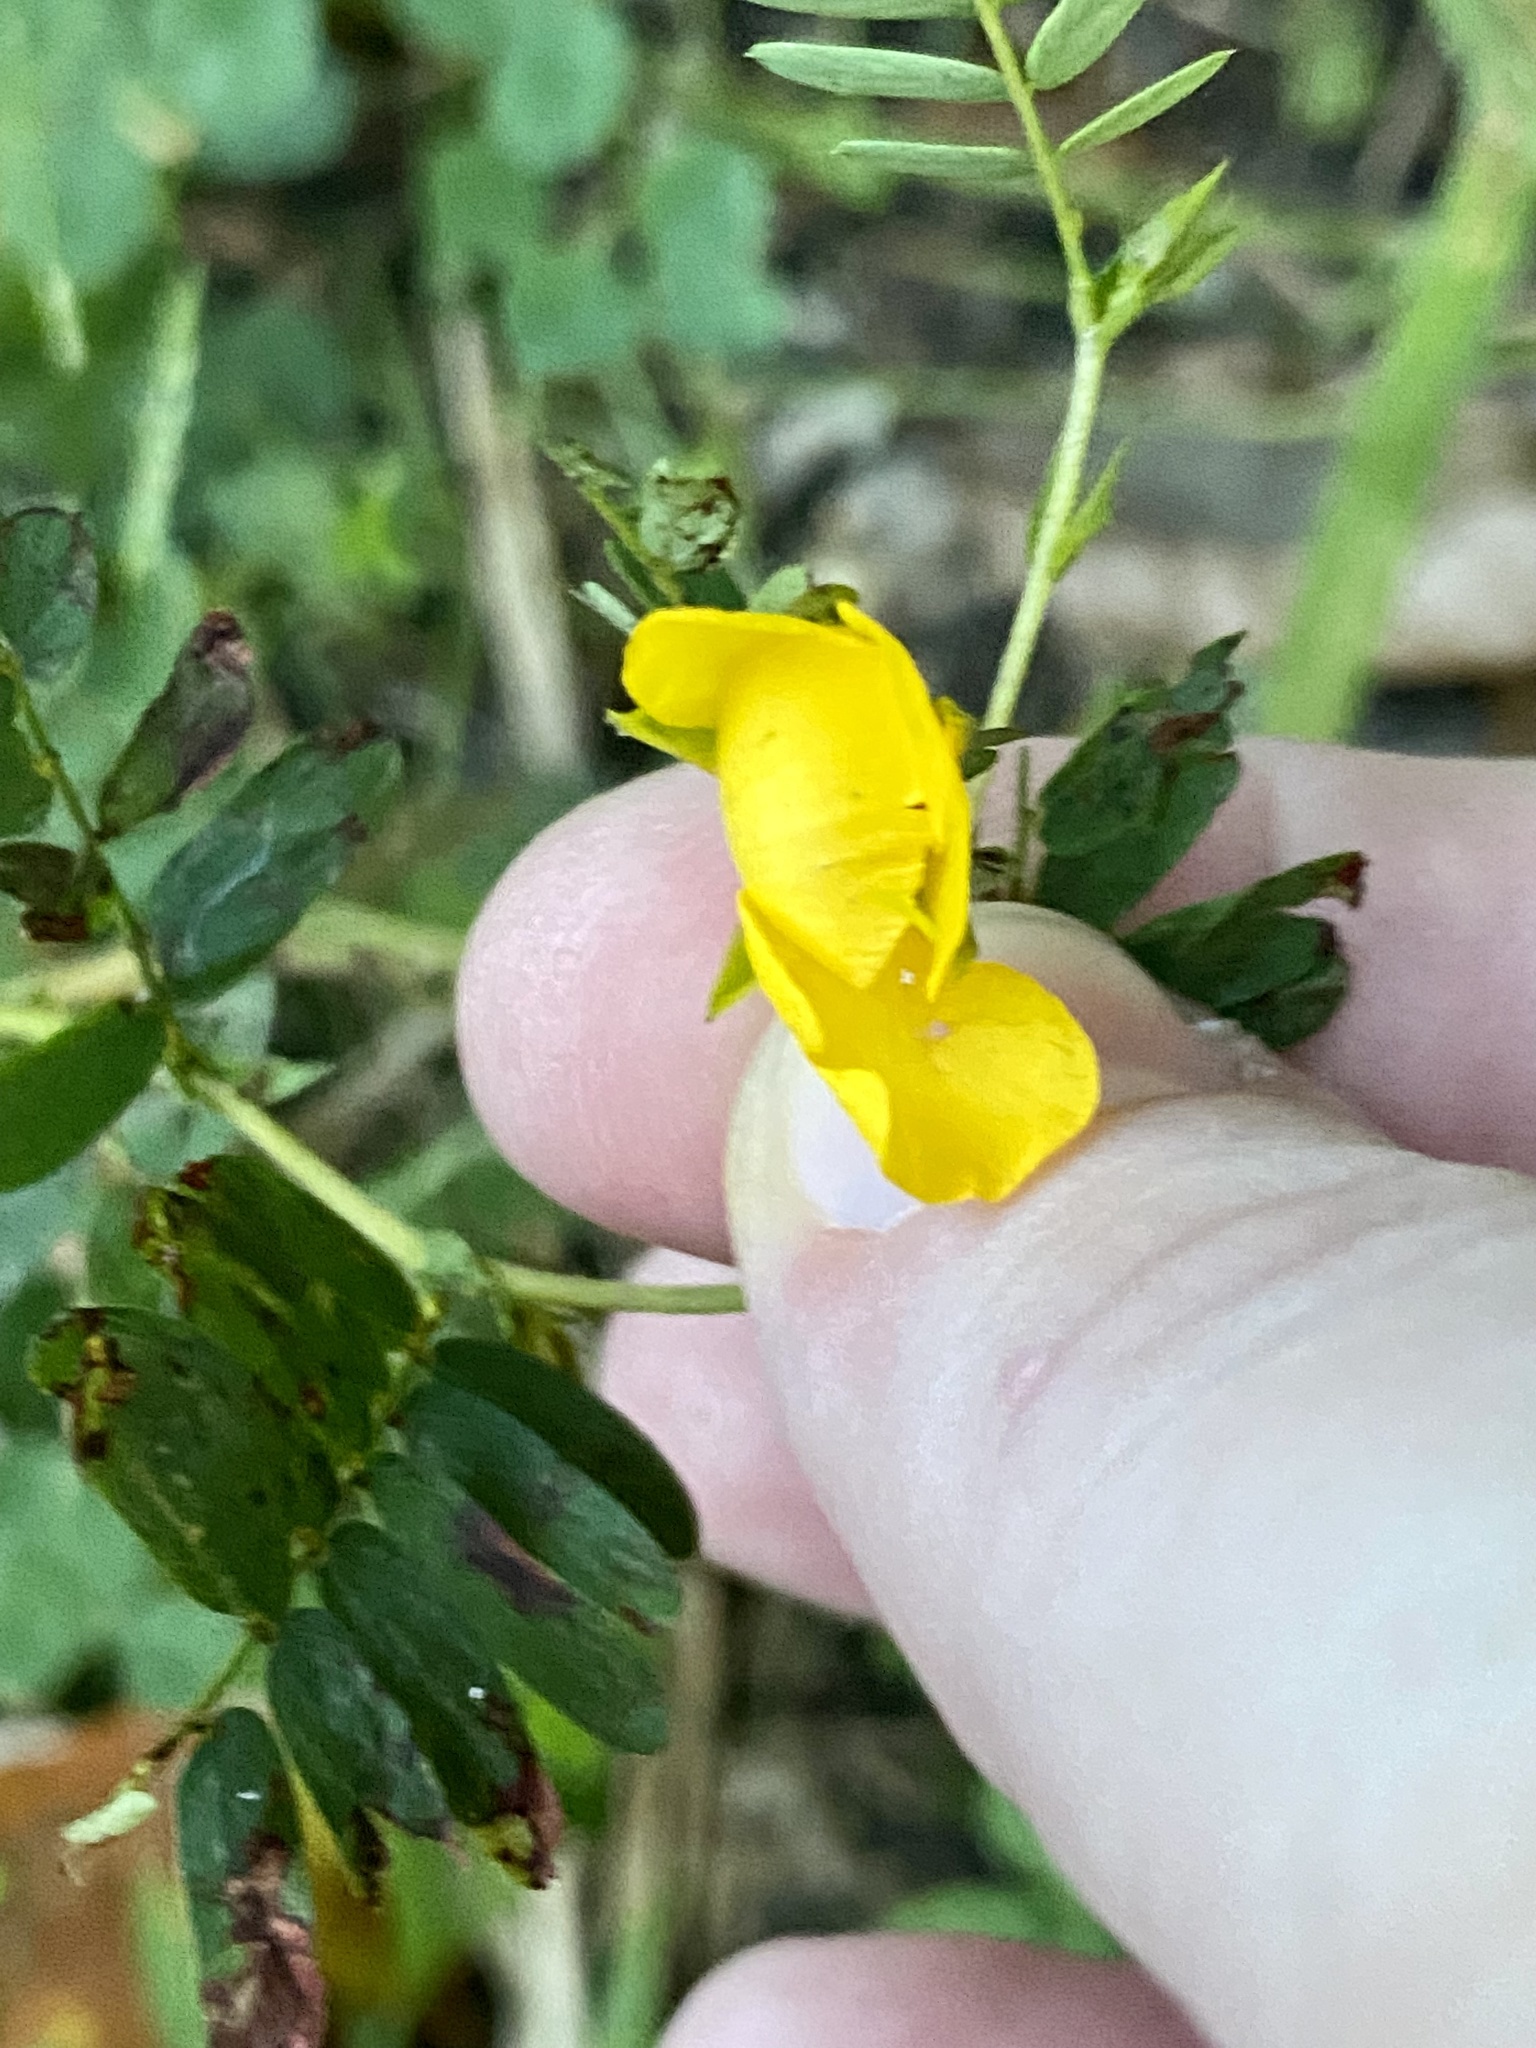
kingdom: Plantae
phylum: Tracheophyta
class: Magnoliopsida
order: Fabales
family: Fabaceae
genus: Chamaecrista
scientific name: Chamaecrista fasciculata
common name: Golden cassia
